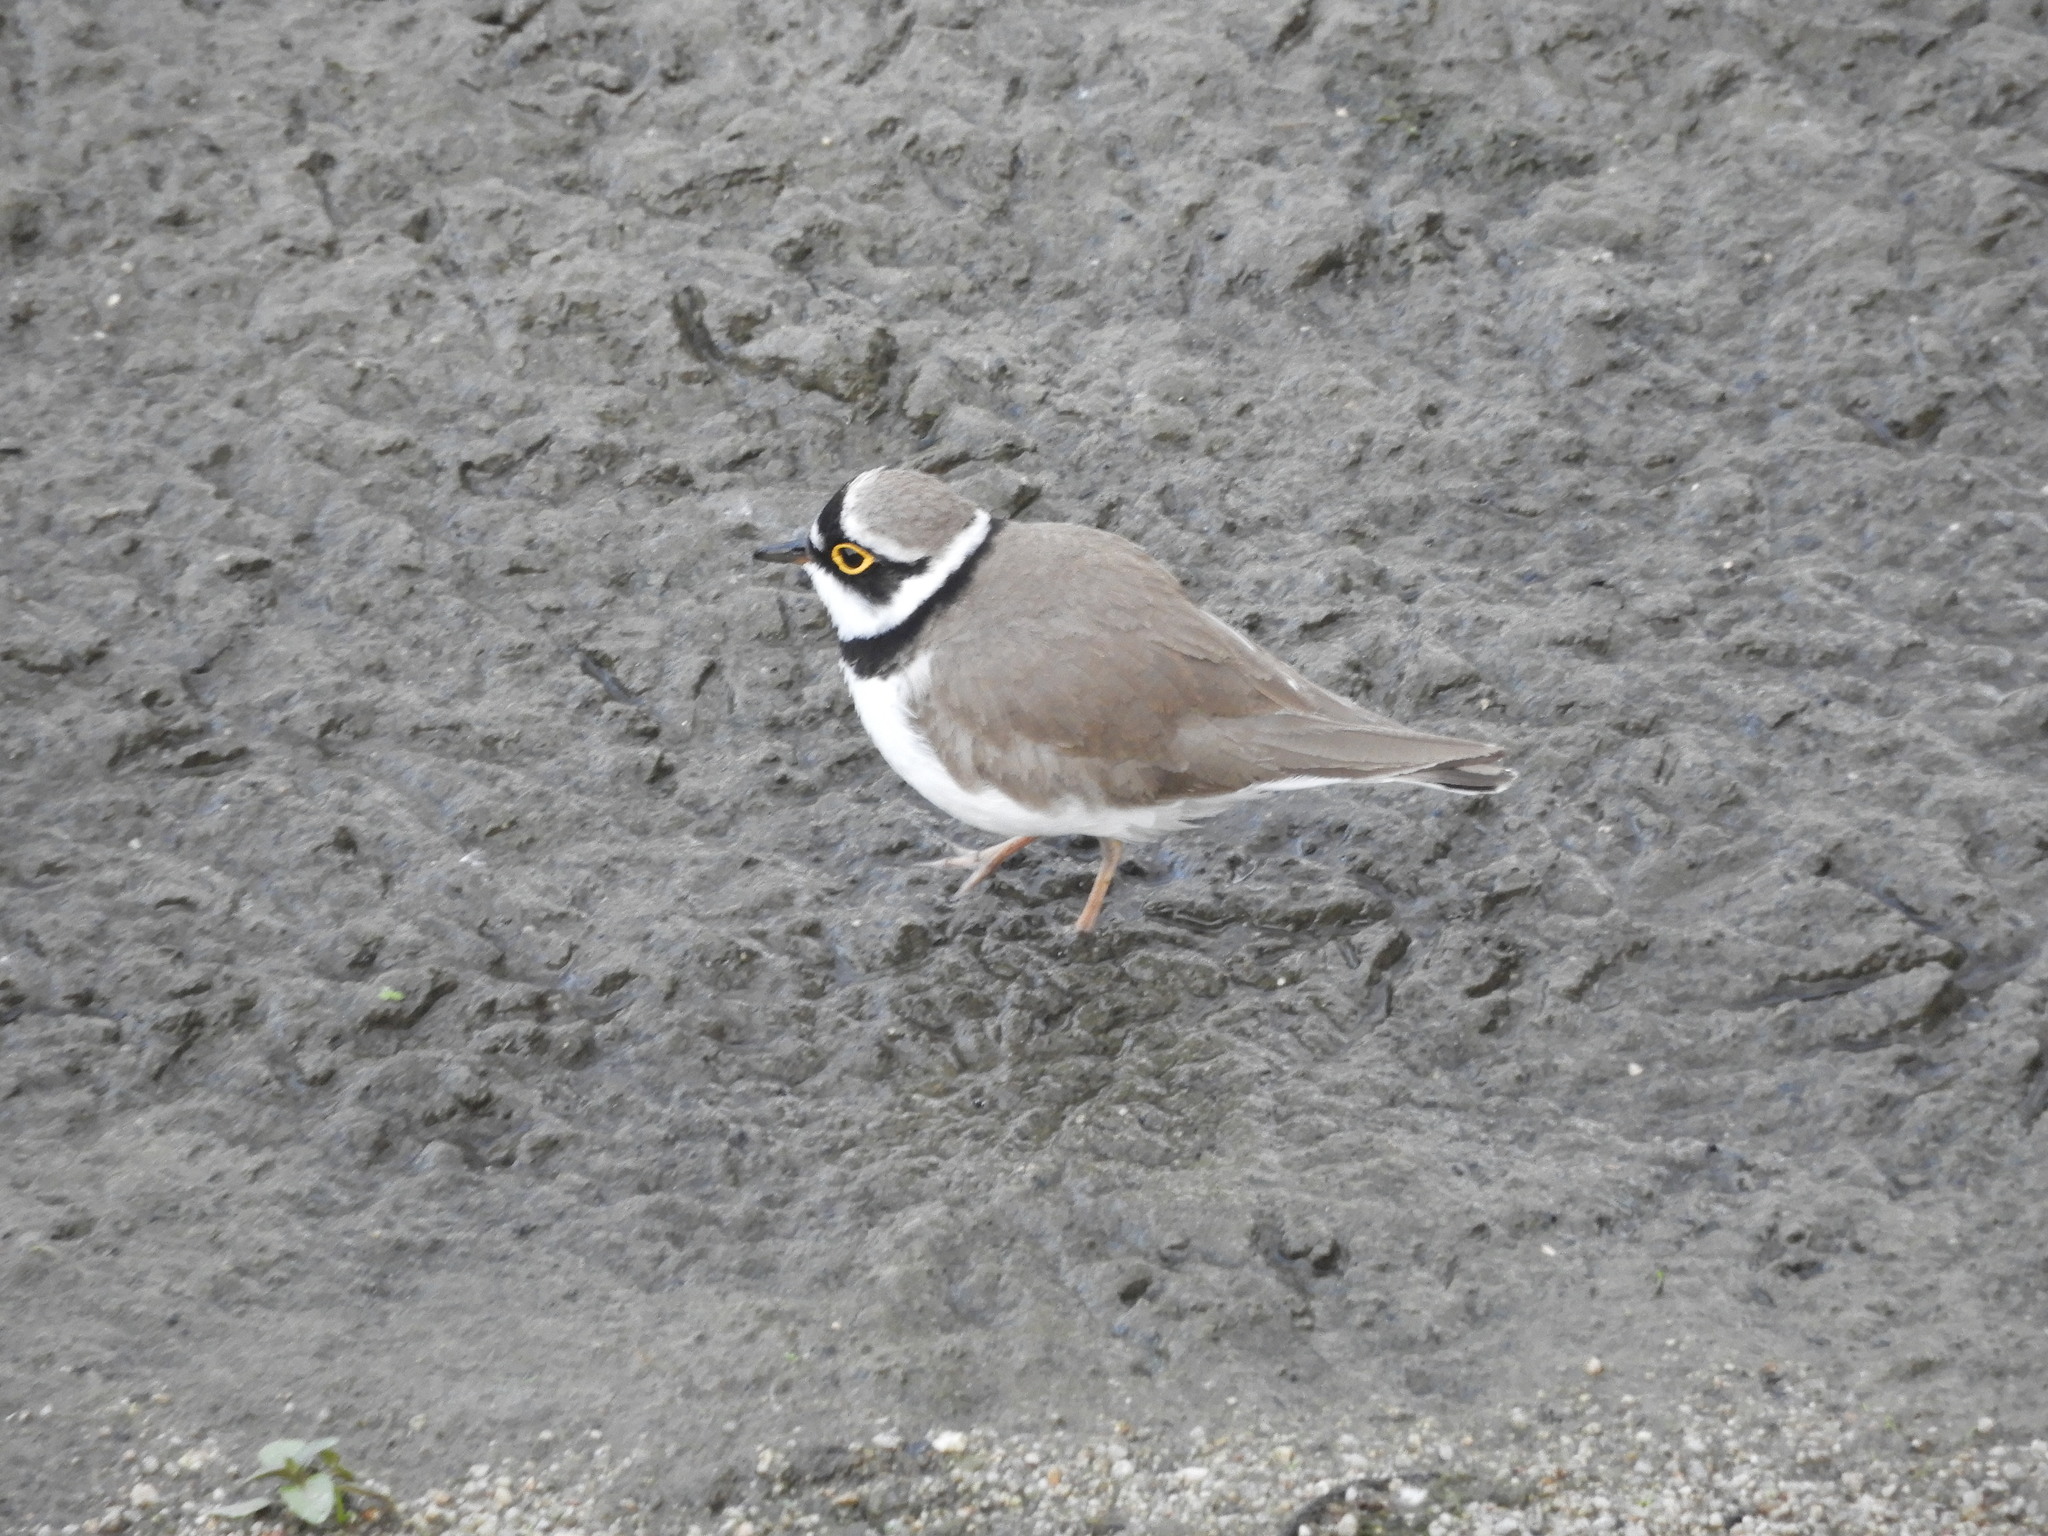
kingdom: Animalia
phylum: Chordata
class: Aves
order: Charadriiformes
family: Charadriidae
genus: Charadrius
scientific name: Charadrius dubius
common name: Little ringed plover
